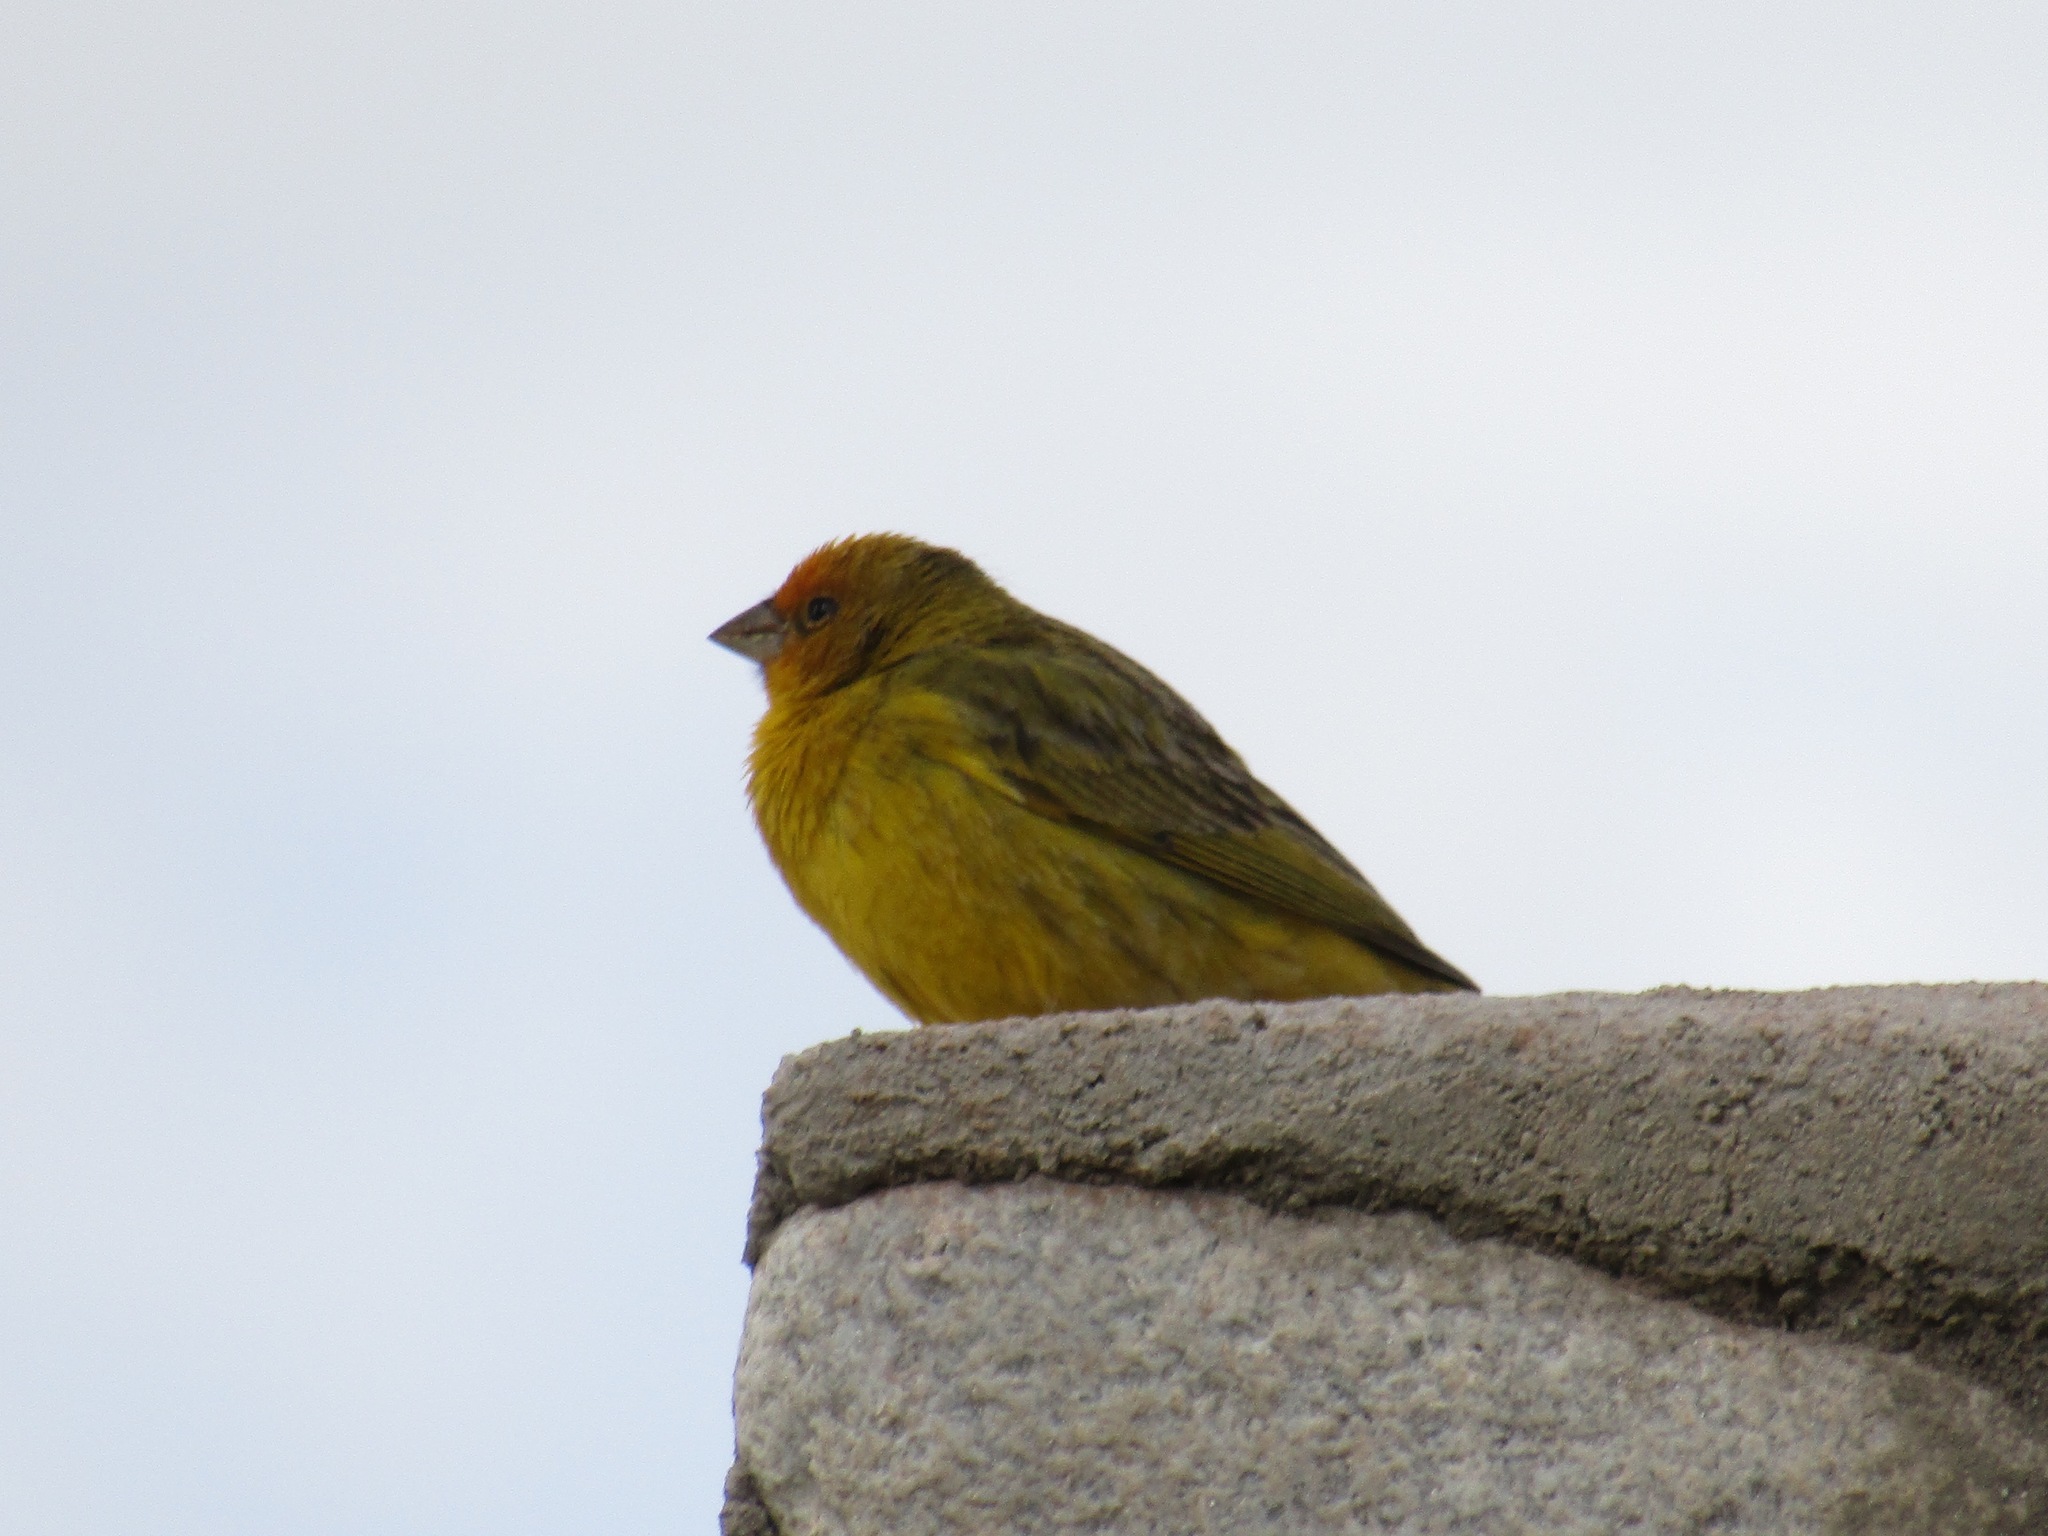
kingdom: Animalia
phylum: Chordata
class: Aves
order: Passeriformes
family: Thraupidae
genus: Sicalis
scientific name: Sicalis flaveola
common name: Saffron finch
